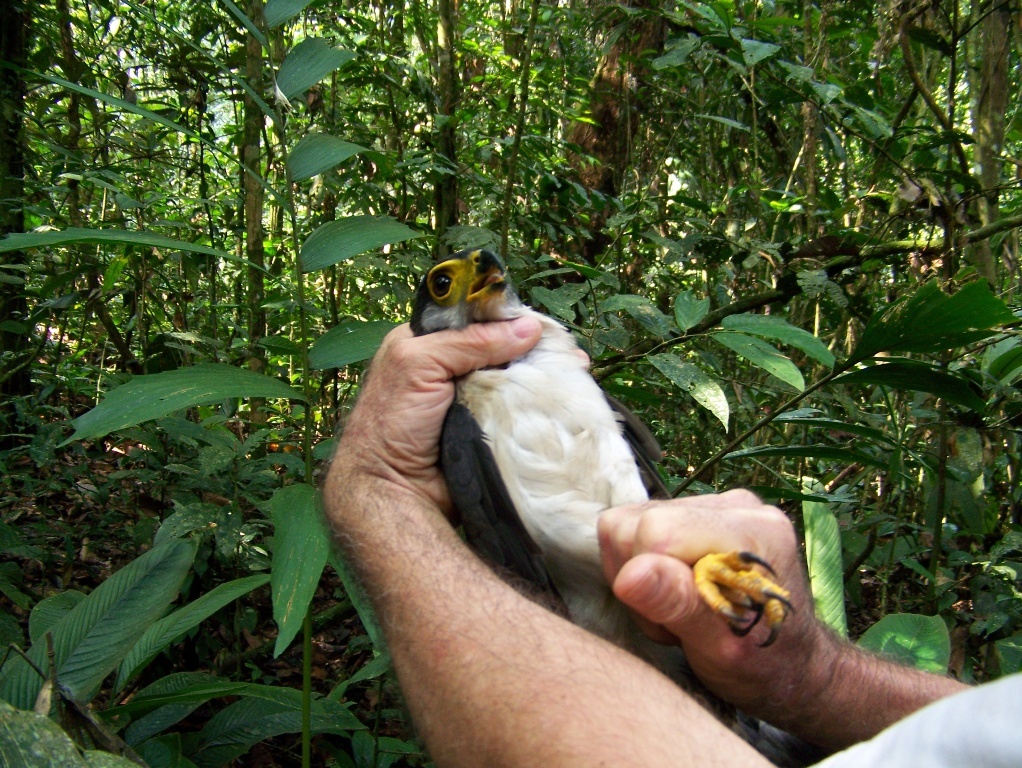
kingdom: Animalia
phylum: Chordata
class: Aves
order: Falconiformes
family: Falconidae
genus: Micrastur
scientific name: Micrastur mirandollei
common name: Slaty-backed forest-falcon
